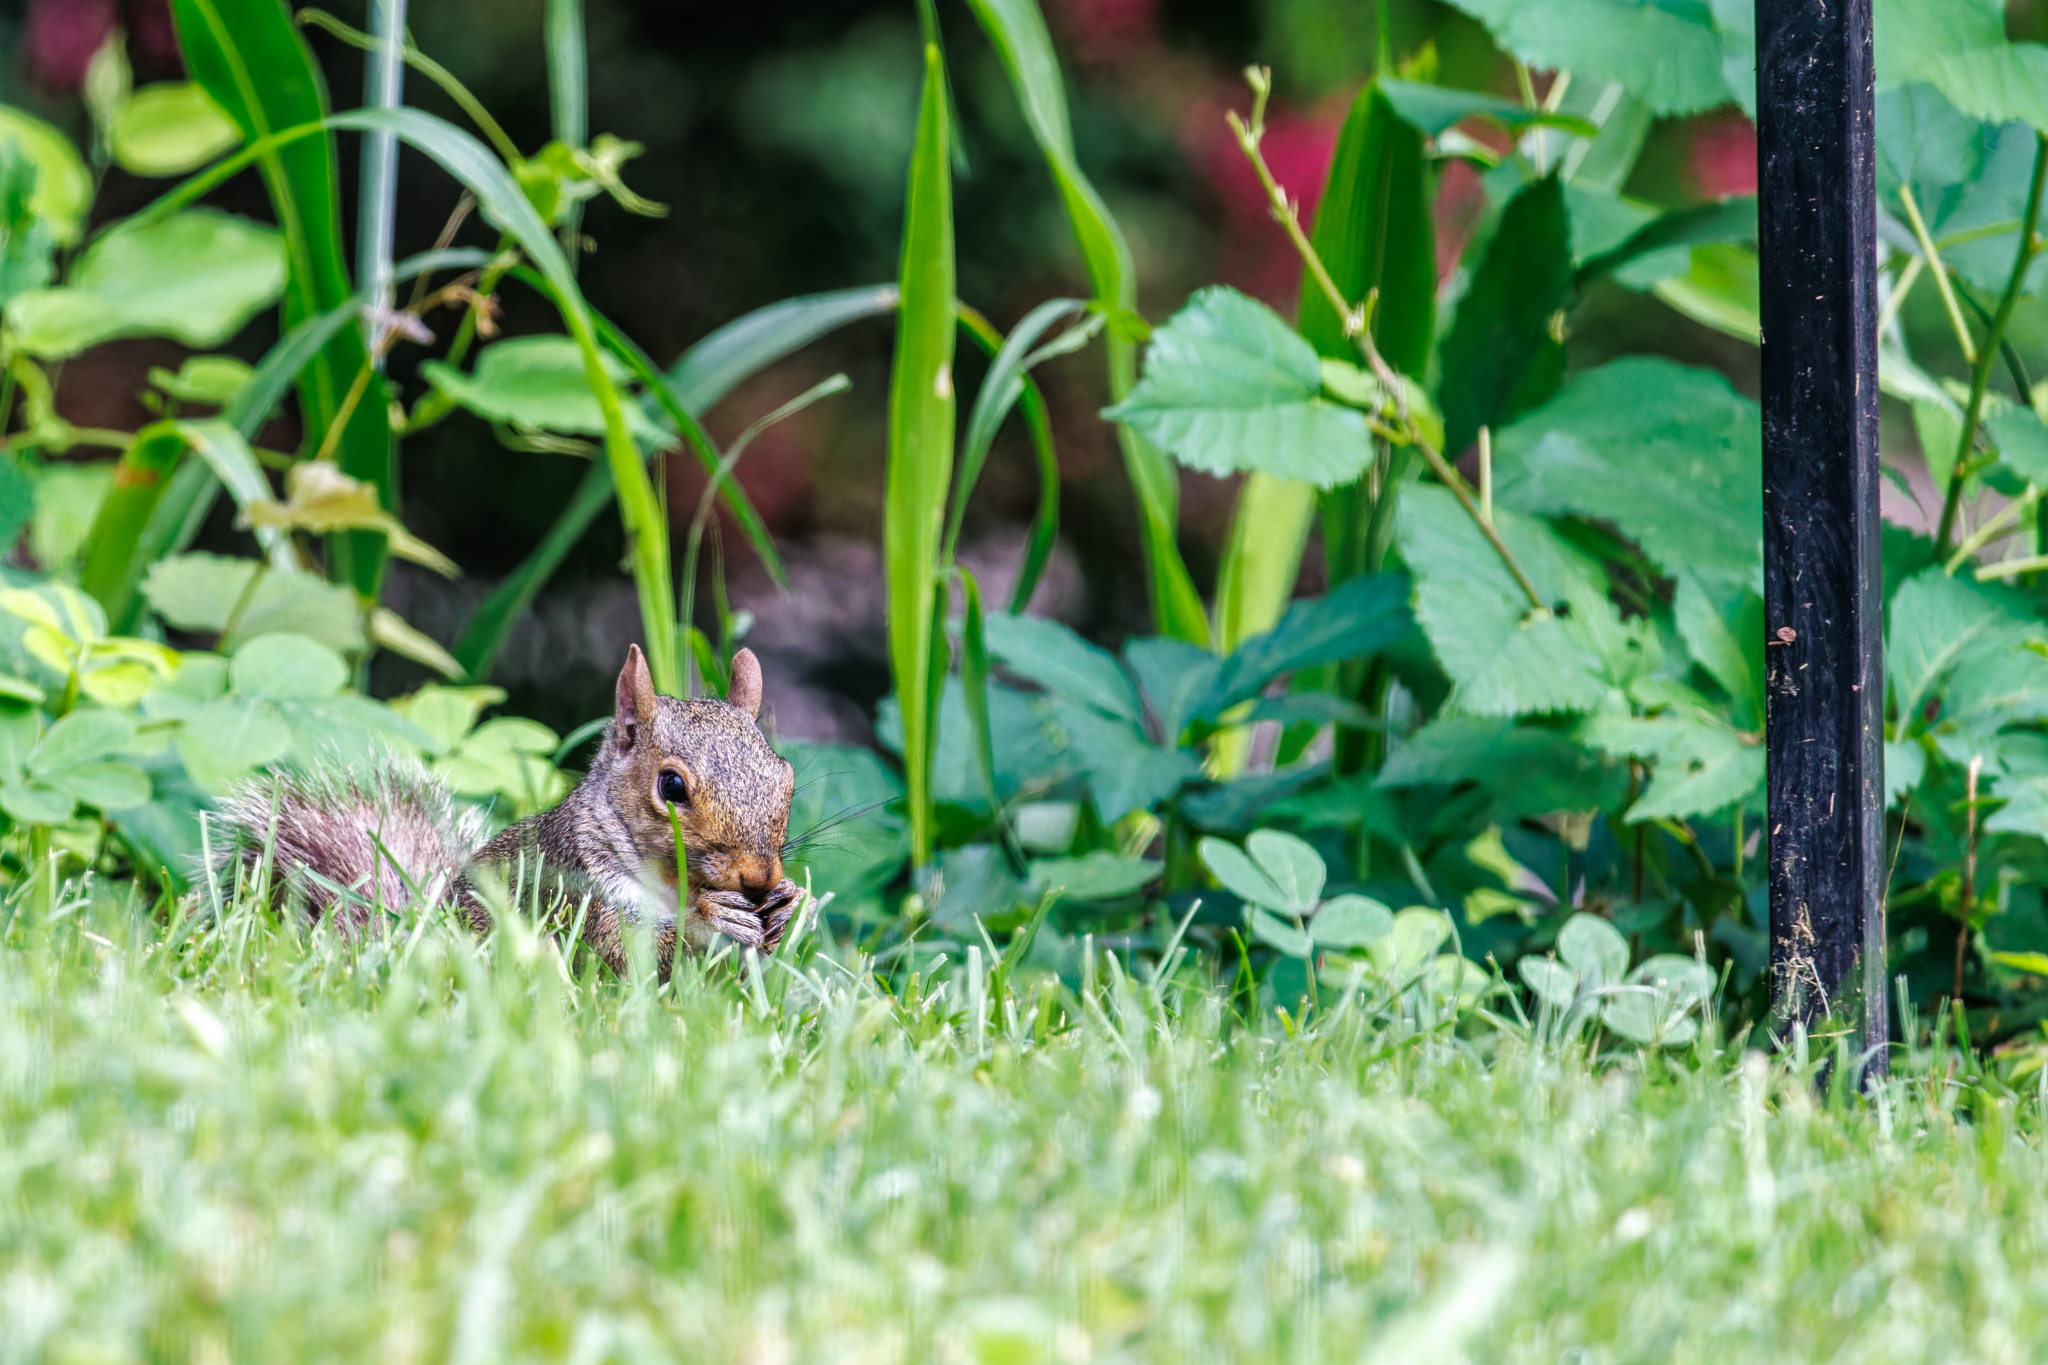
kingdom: Animalia
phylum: Chordata
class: Mammalia
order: Rodentia
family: Sciuridae
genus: Sciurus
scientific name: Sciurus carolinensis
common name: Eastern gray squirrel
